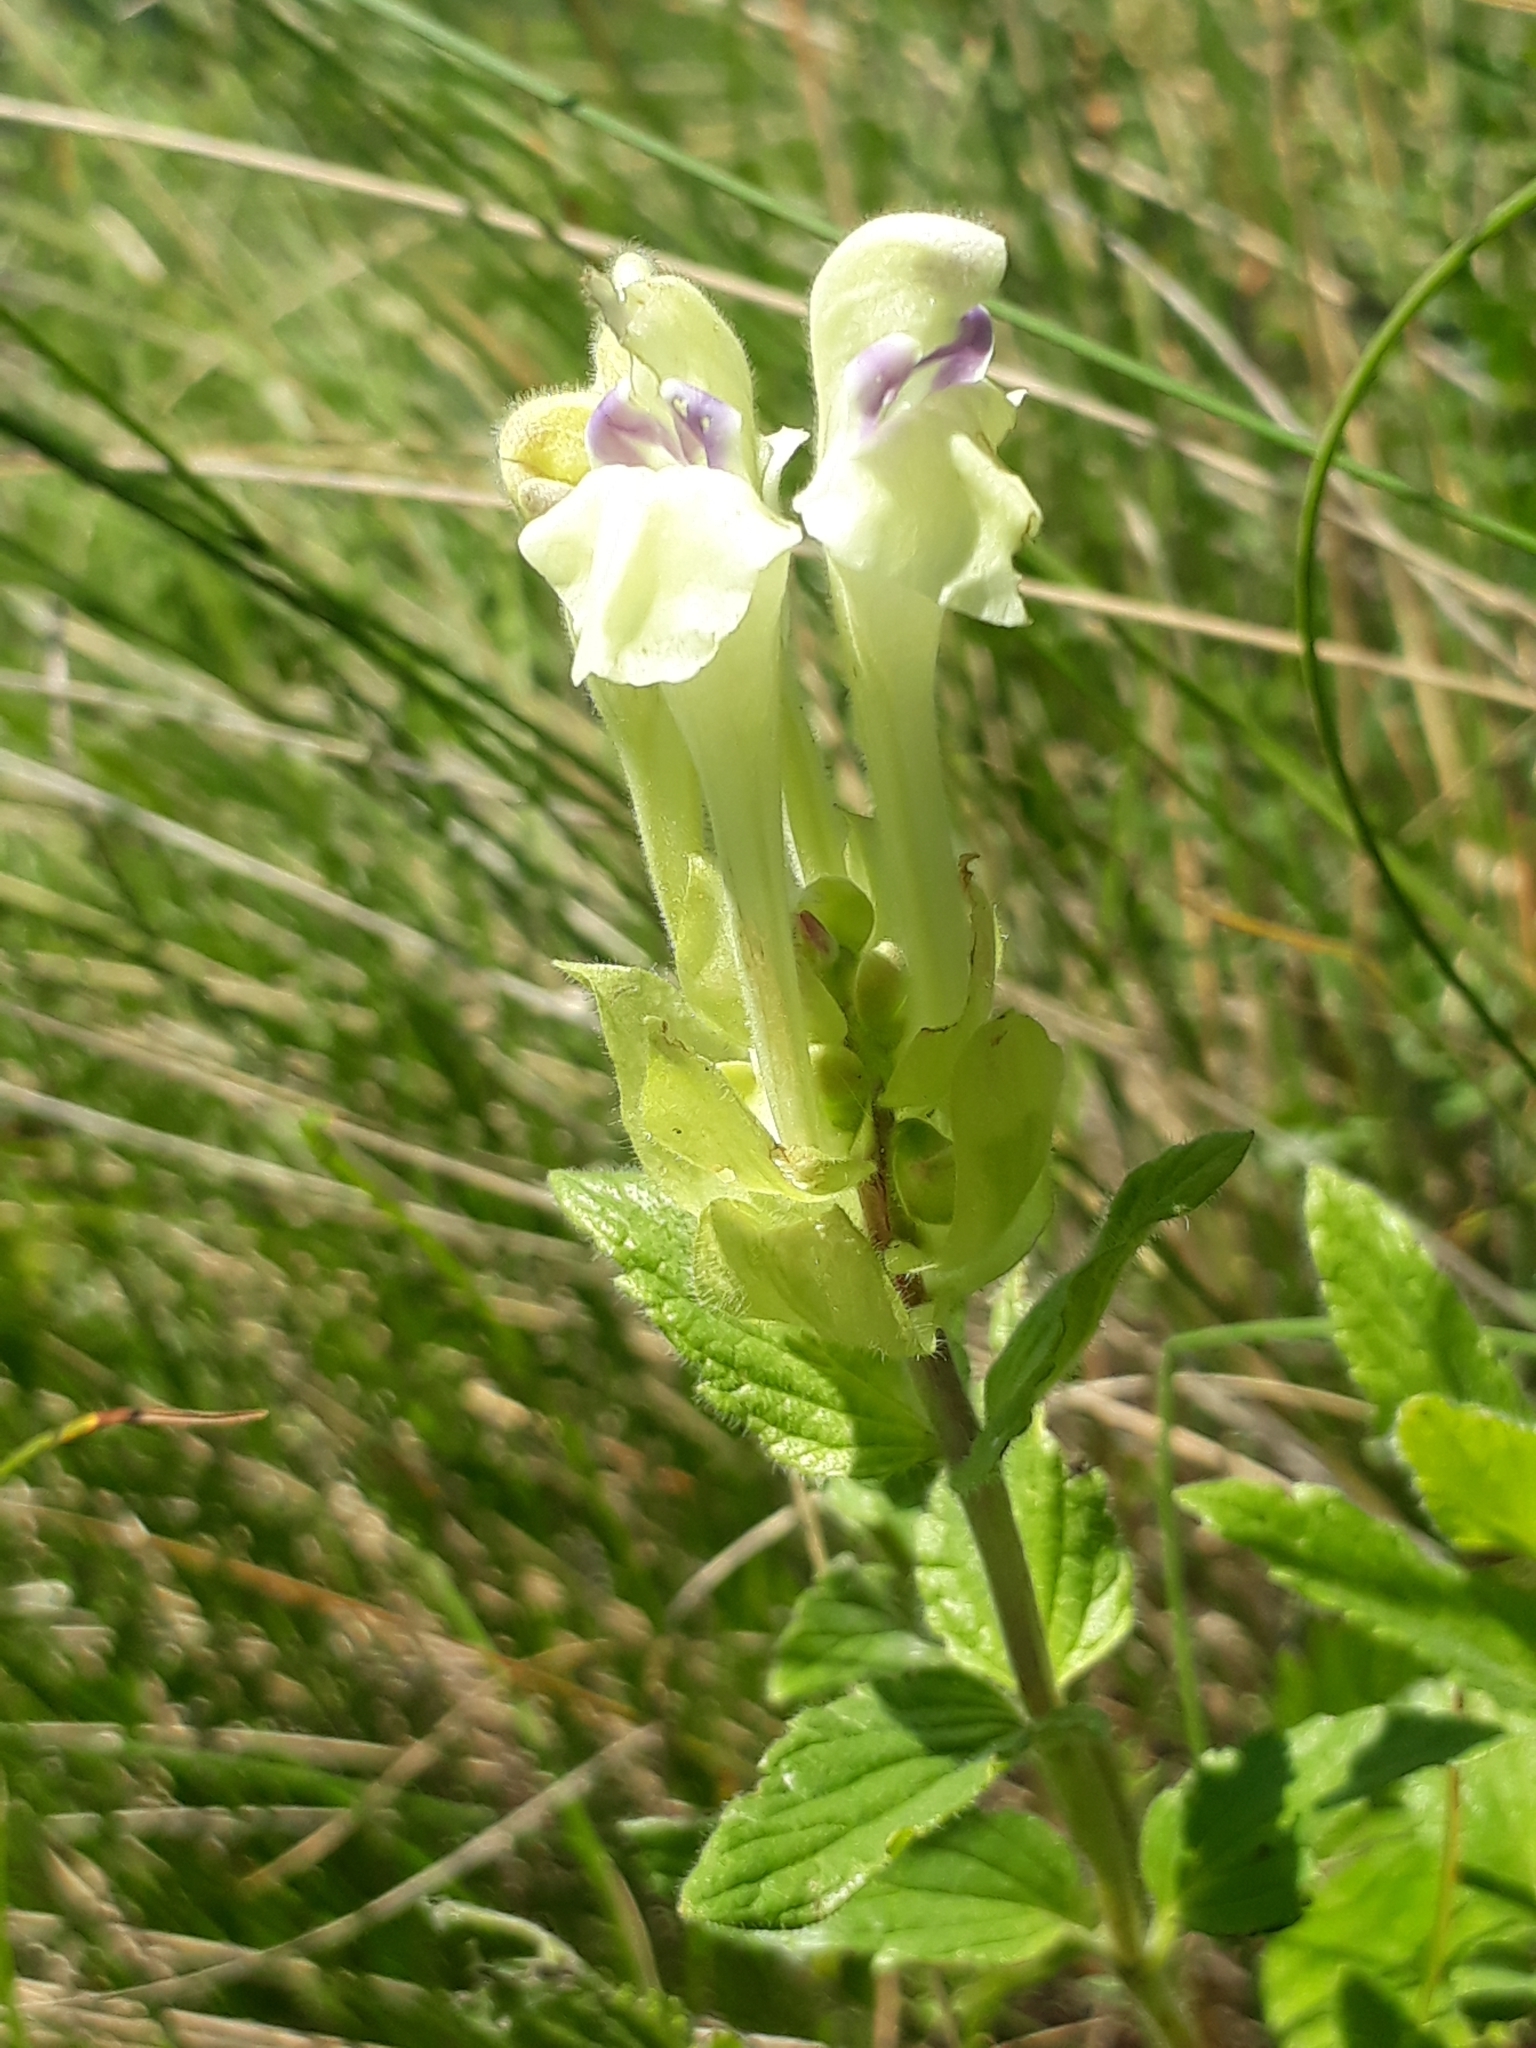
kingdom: Plantae
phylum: Tracheophyta
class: Magnoliopsida
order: Lamiales
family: Lamiaceae
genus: Scutellaria
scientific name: Scutellaria supina
